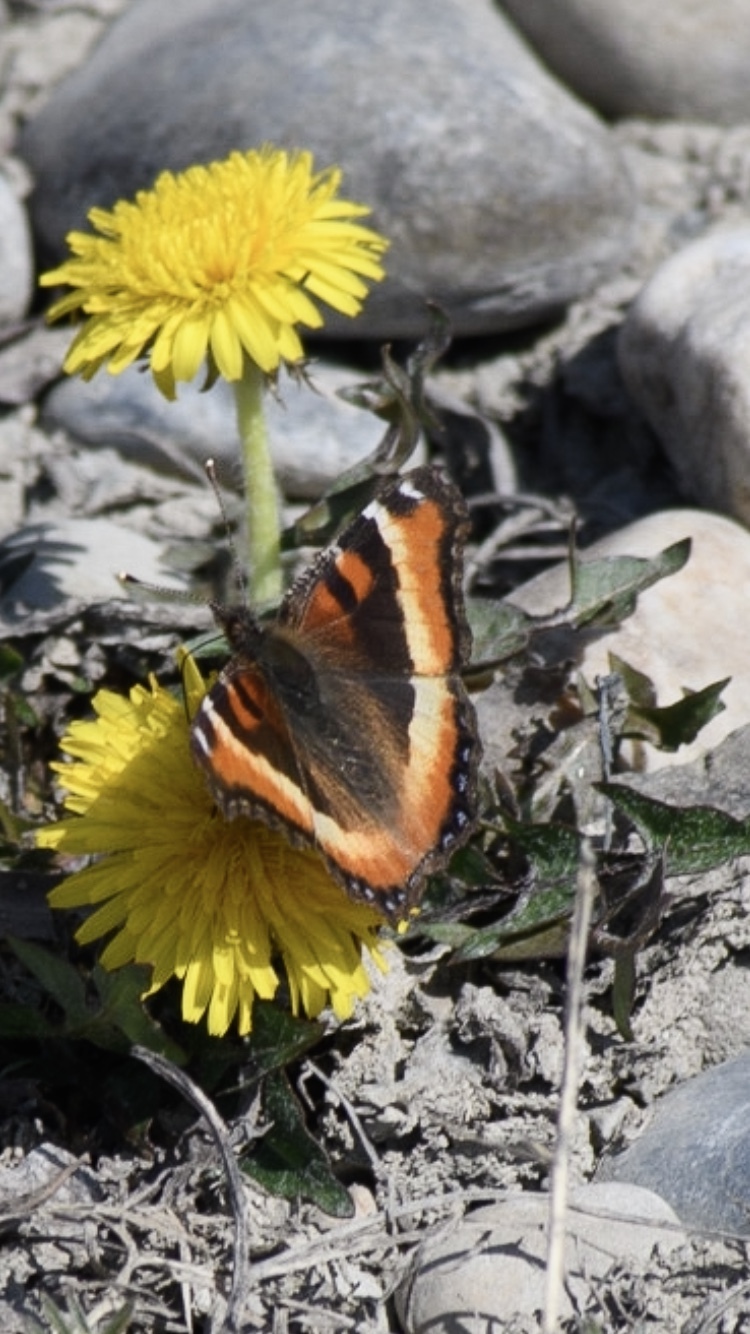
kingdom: Animalia
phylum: Arthropoda
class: Insecta
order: Lepidoptera
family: Nymphalidae
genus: Aglais
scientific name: Aglais milberti
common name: Milbert's tortoiseshell
